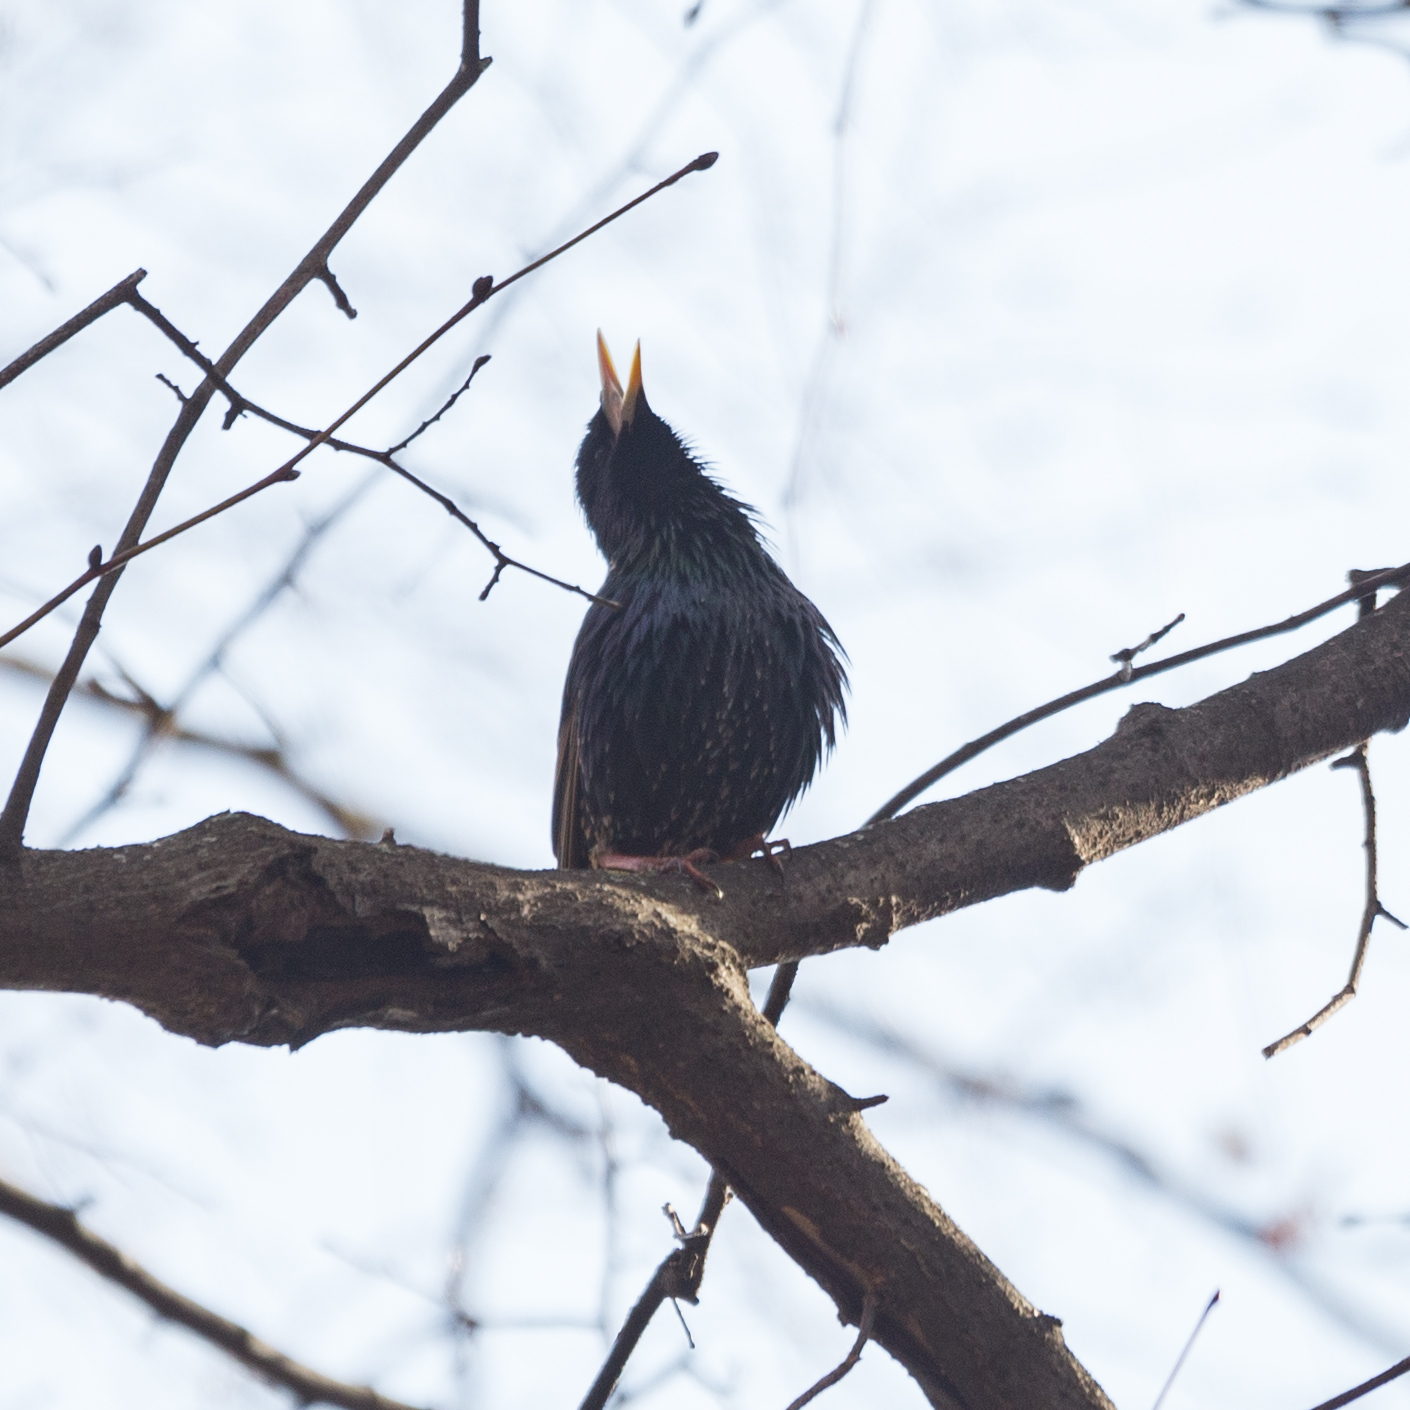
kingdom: Animalia
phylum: Chordata
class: Aves
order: Passeriformes
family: Sturnidae
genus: Sturnus
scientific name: Sturnus vulgaris
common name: Common starling
